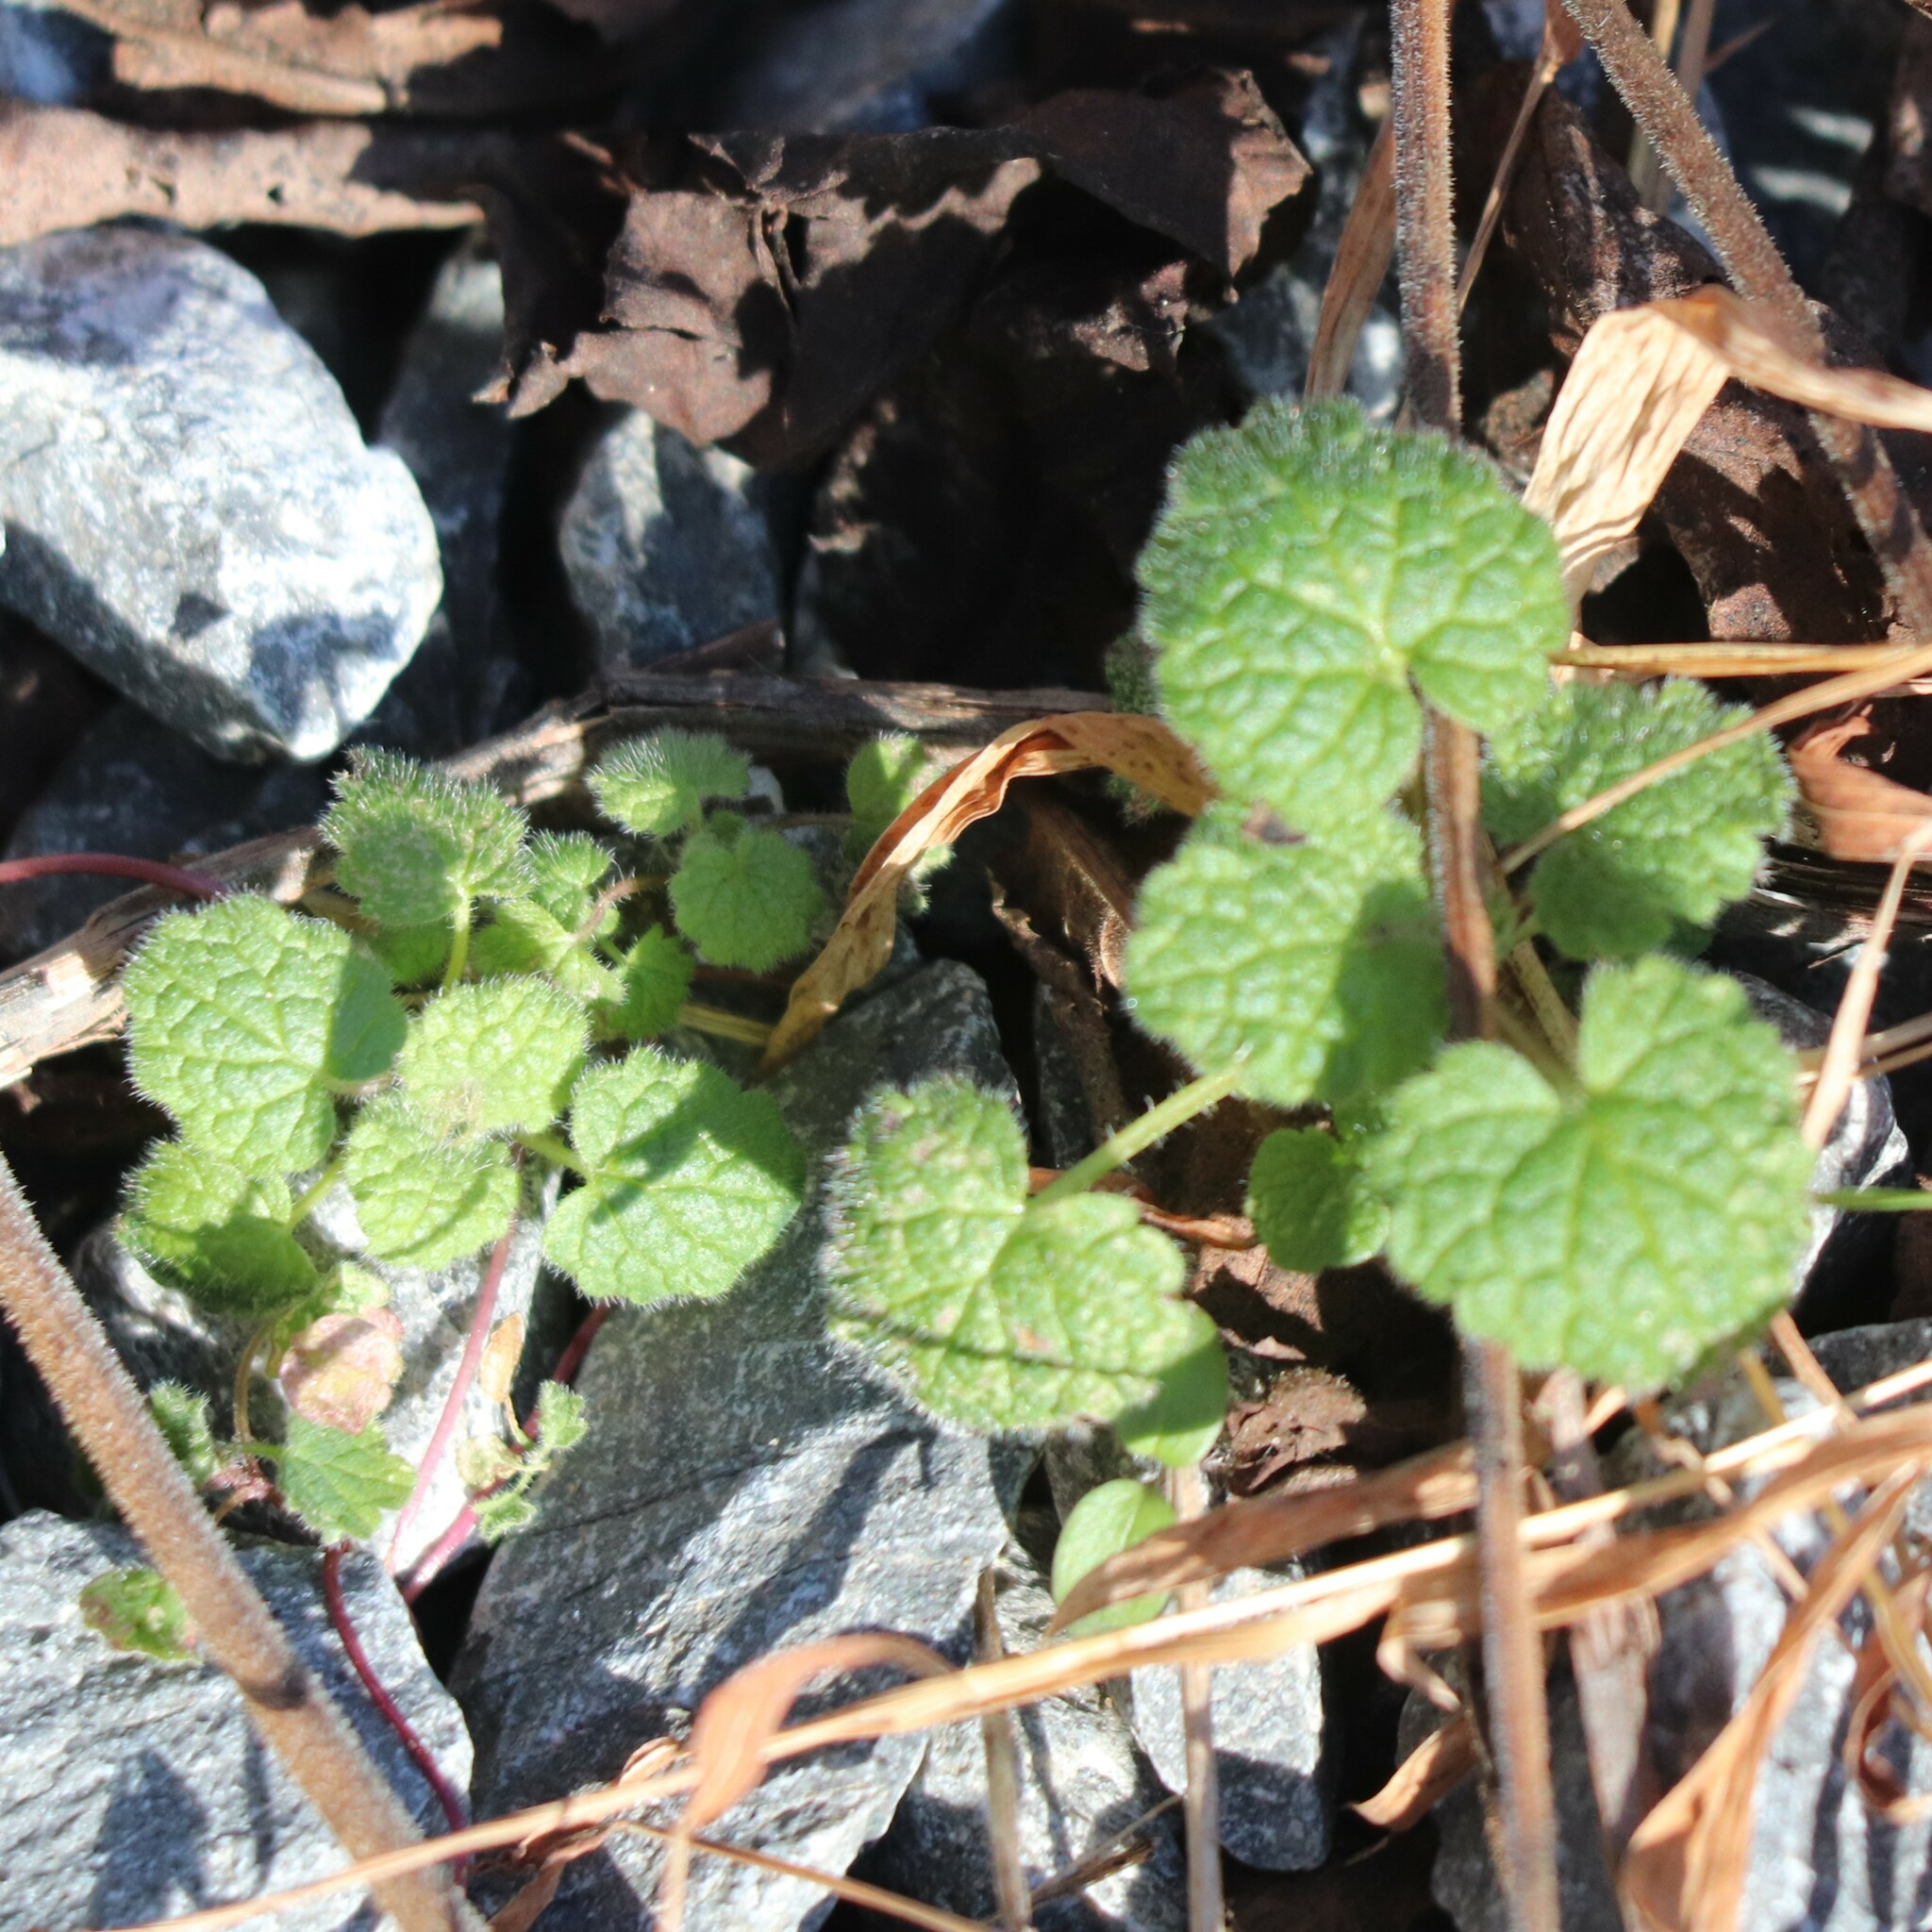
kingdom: Plantae
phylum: Tracheophyta
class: Magnoliopsida
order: Lamiales
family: Lamiaceae
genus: Lamium
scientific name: Lamium purpureum
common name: Red dead-nettle
